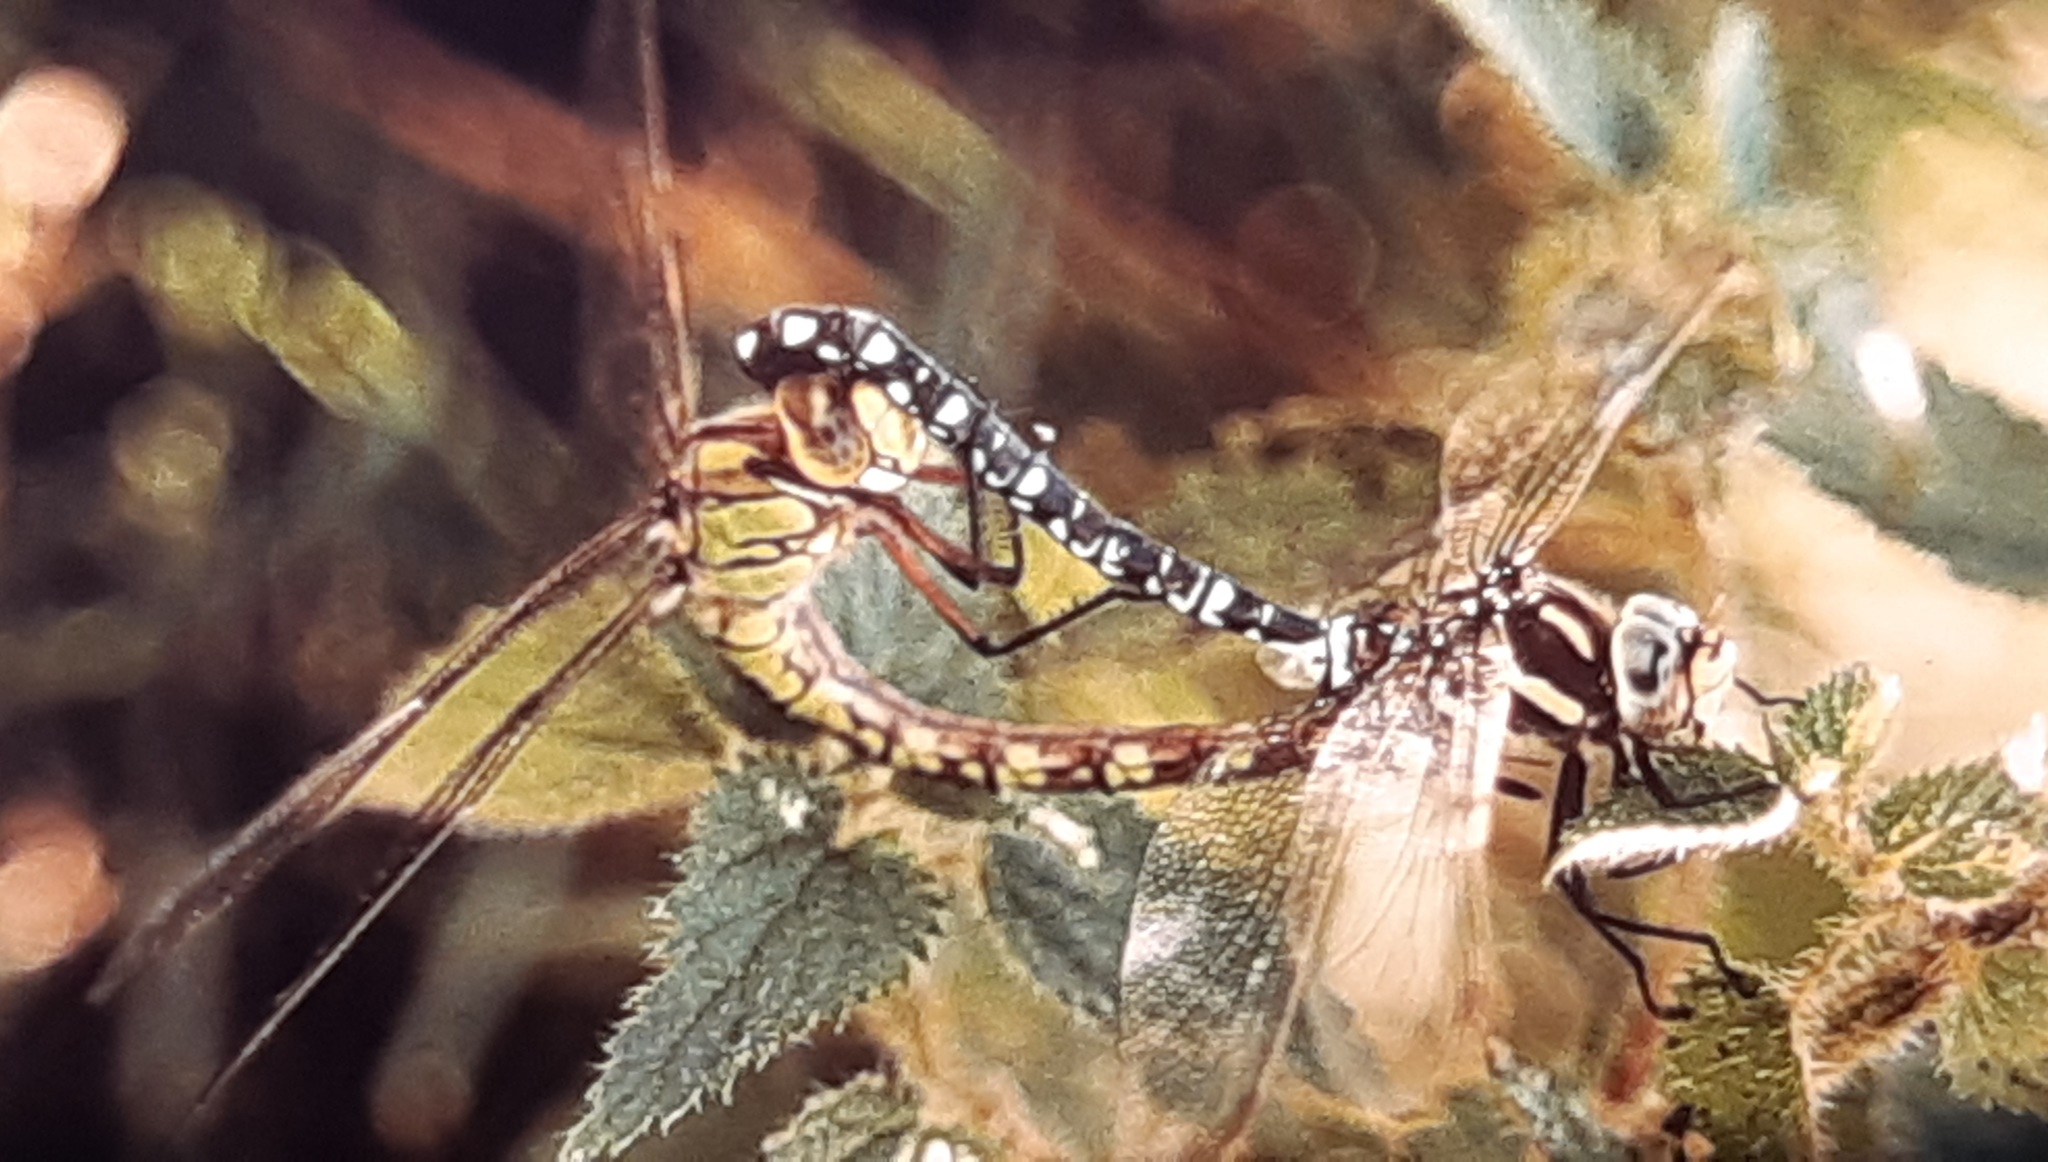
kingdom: Animalia
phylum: Arthropoda
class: Insecta
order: Odonata
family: Aeshnidae
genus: Aeshna
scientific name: Aeshna cyanea
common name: Southern hawker
